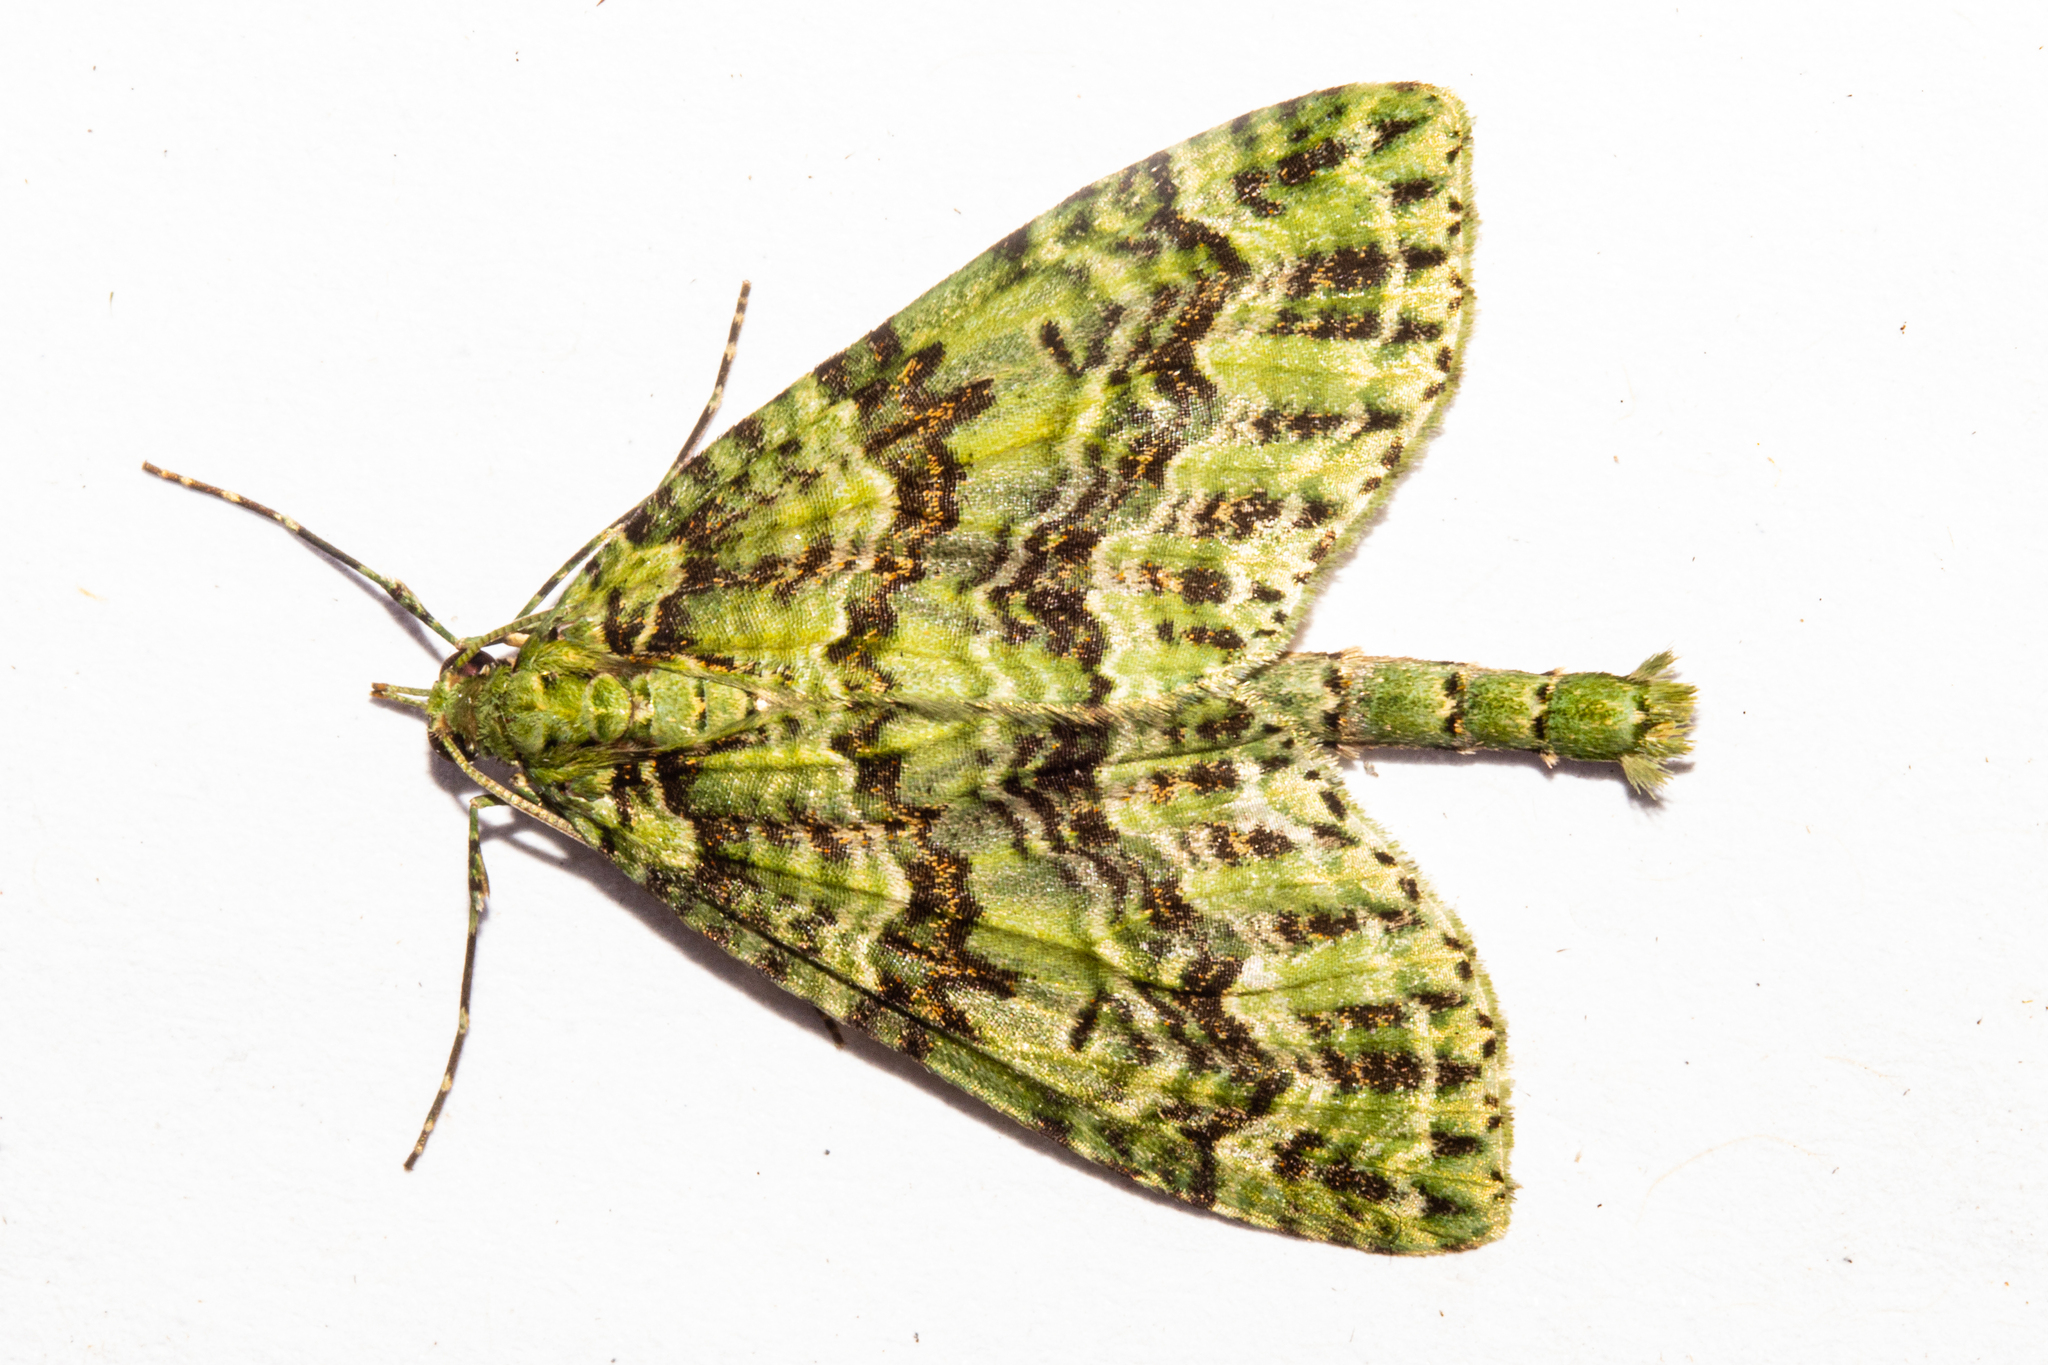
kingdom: Animalia
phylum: Arthropoda
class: Insecta
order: Lepidoptera
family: Geometridae
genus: Tatosoma
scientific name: Tatosoma tipulata
